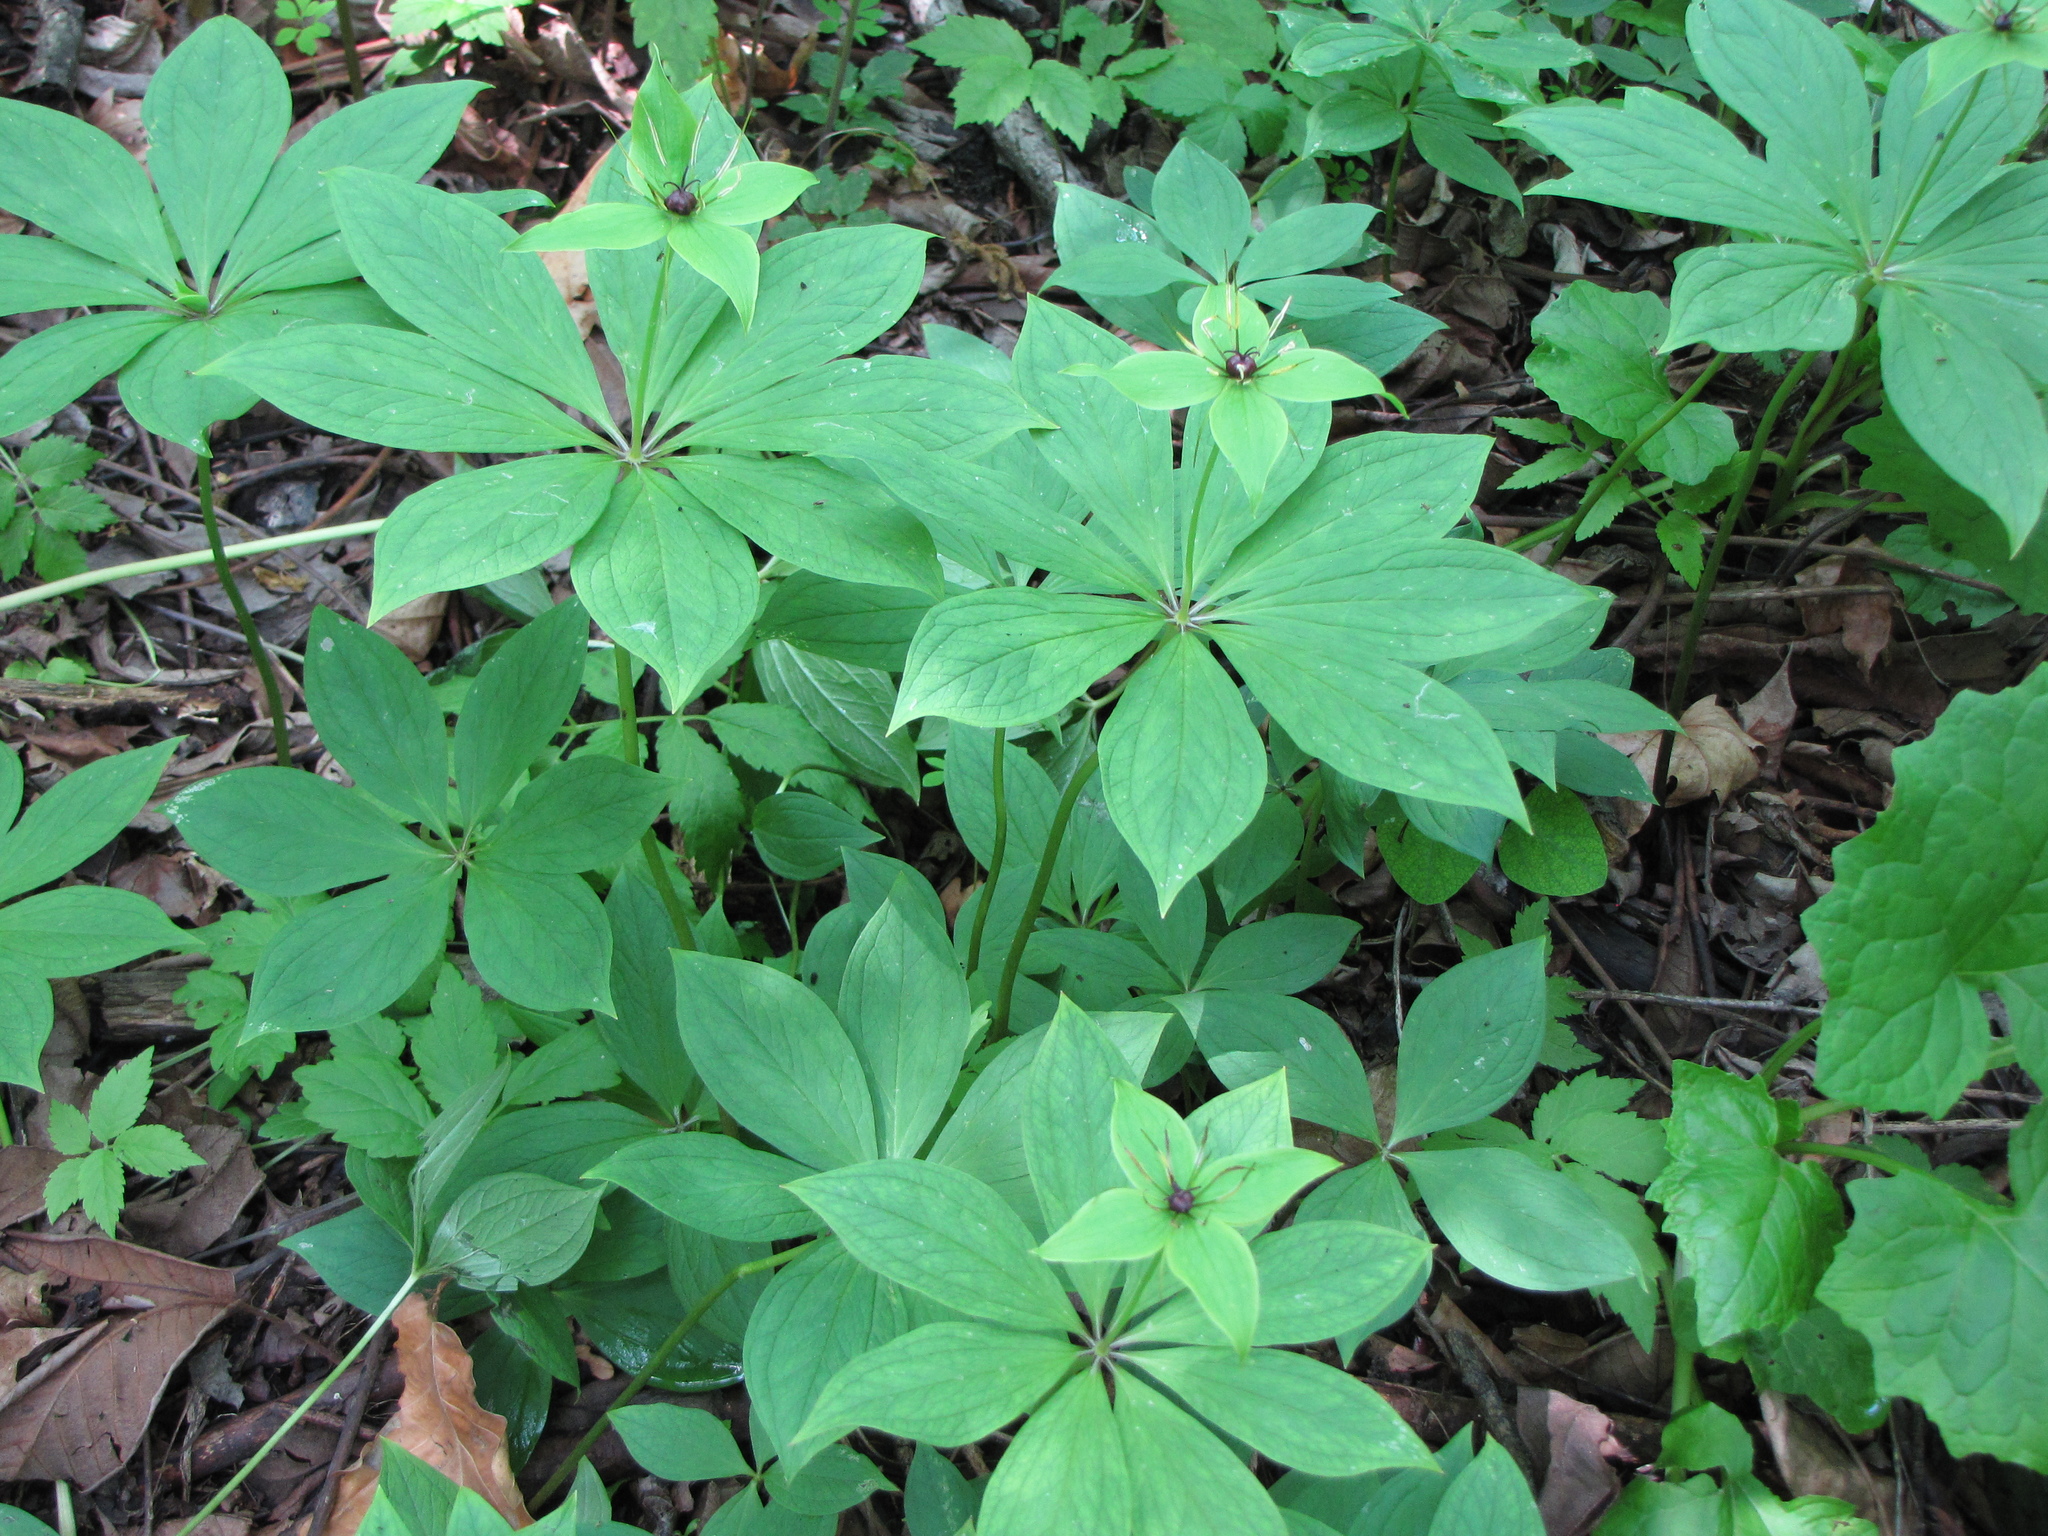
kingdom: Plantae
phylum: Tracheophyta
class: Liliopsida
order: Liliales
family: Melanthiaceae
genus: Paris
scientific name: Paris verticillata
